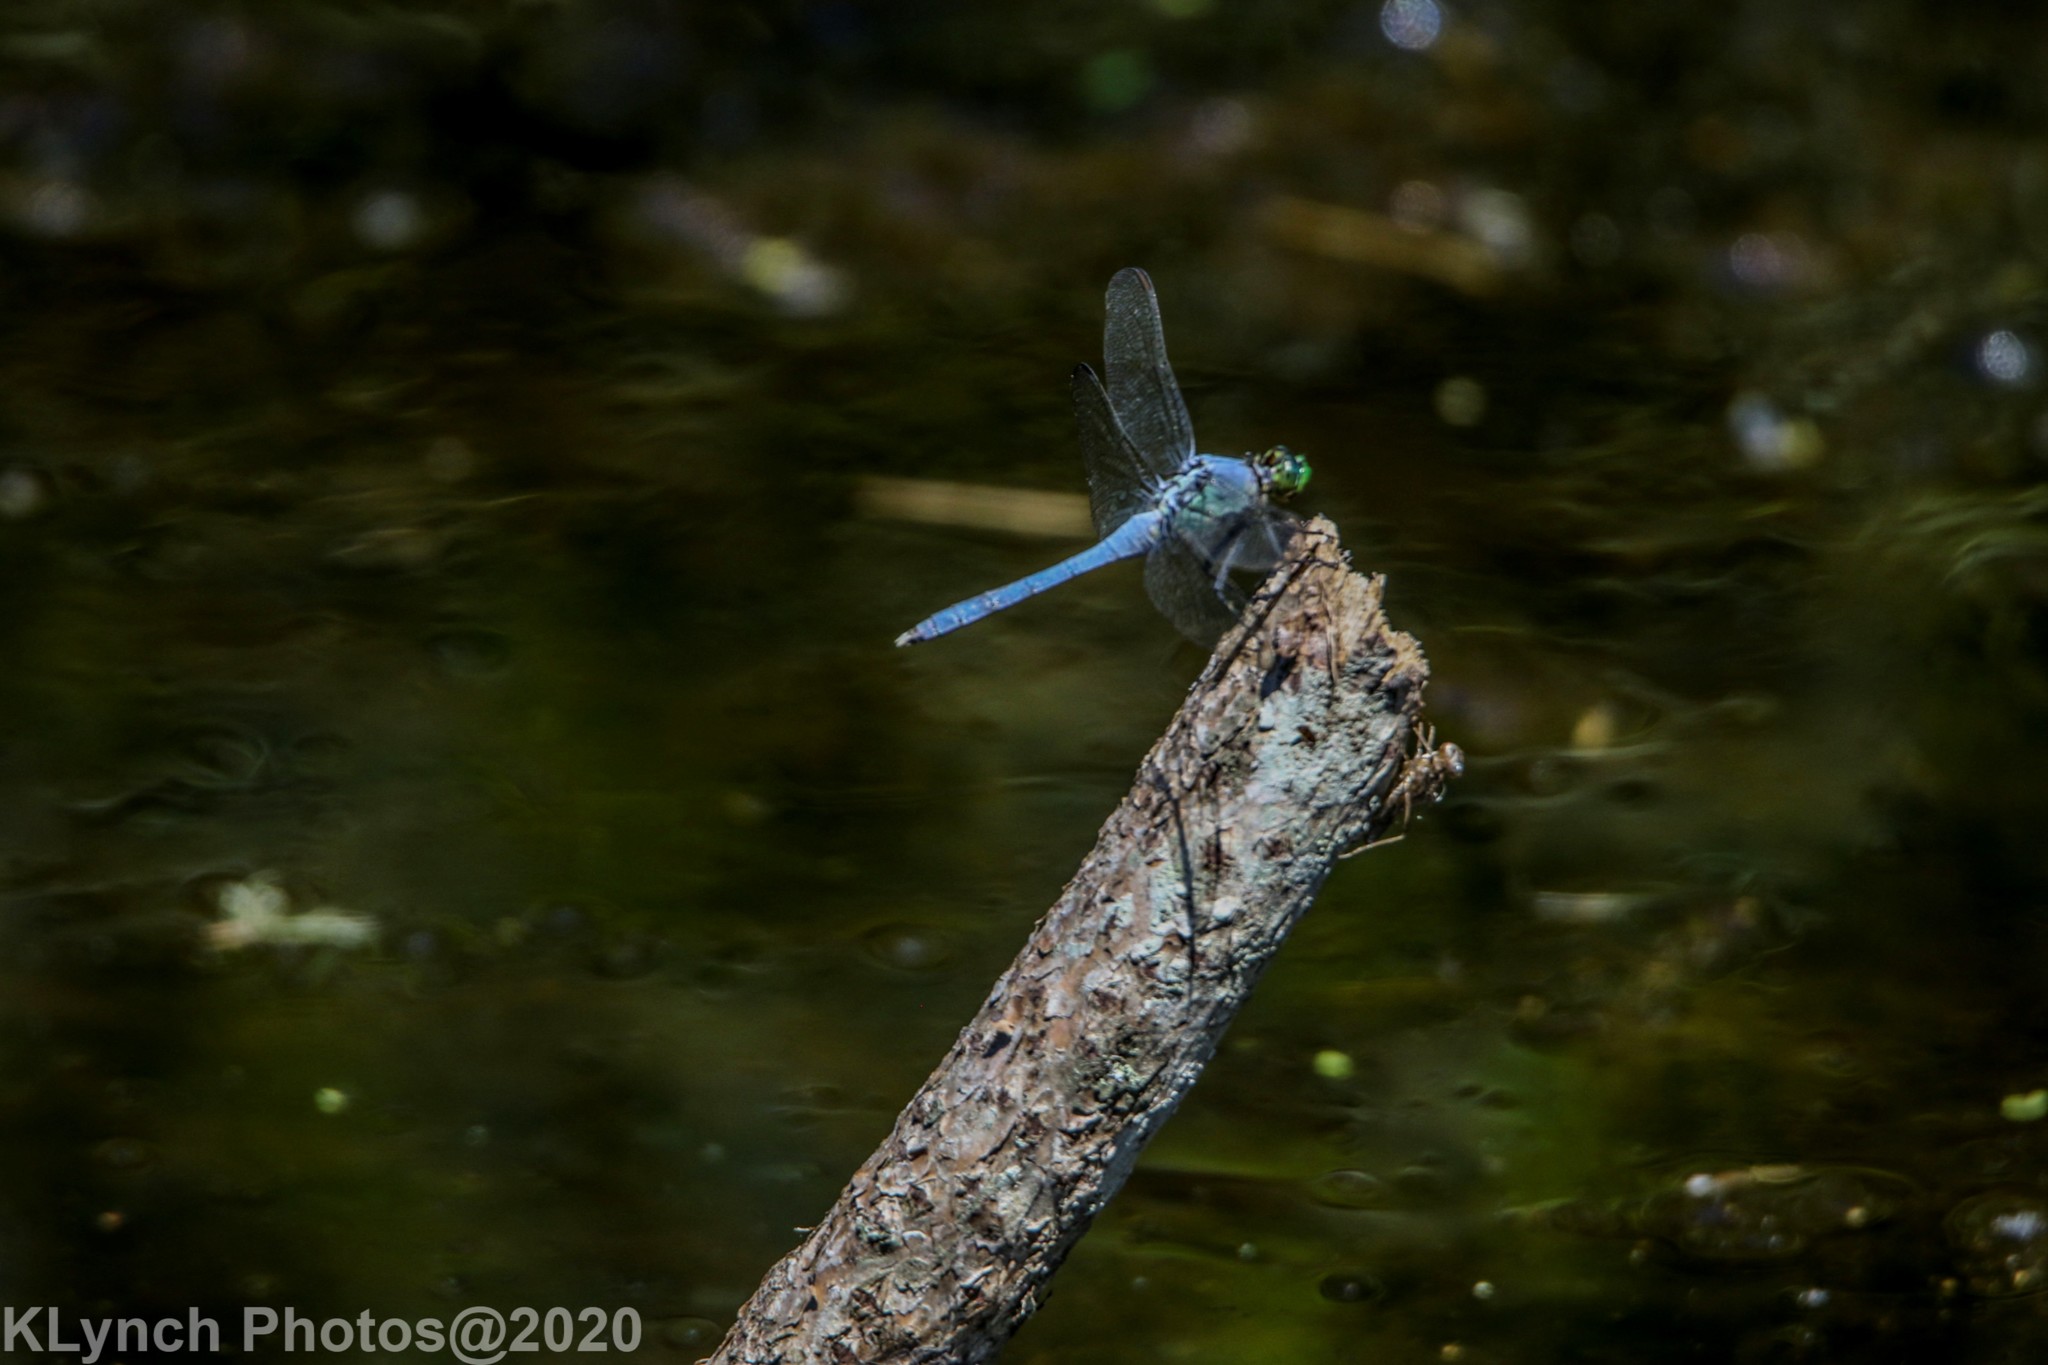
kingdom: Animalia
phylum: Arthropoda
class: Insecta
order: Odonata
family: Libellulidae
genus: Erythemis
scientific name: Erythemis simplicicollis
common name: Eastern pondhawk
